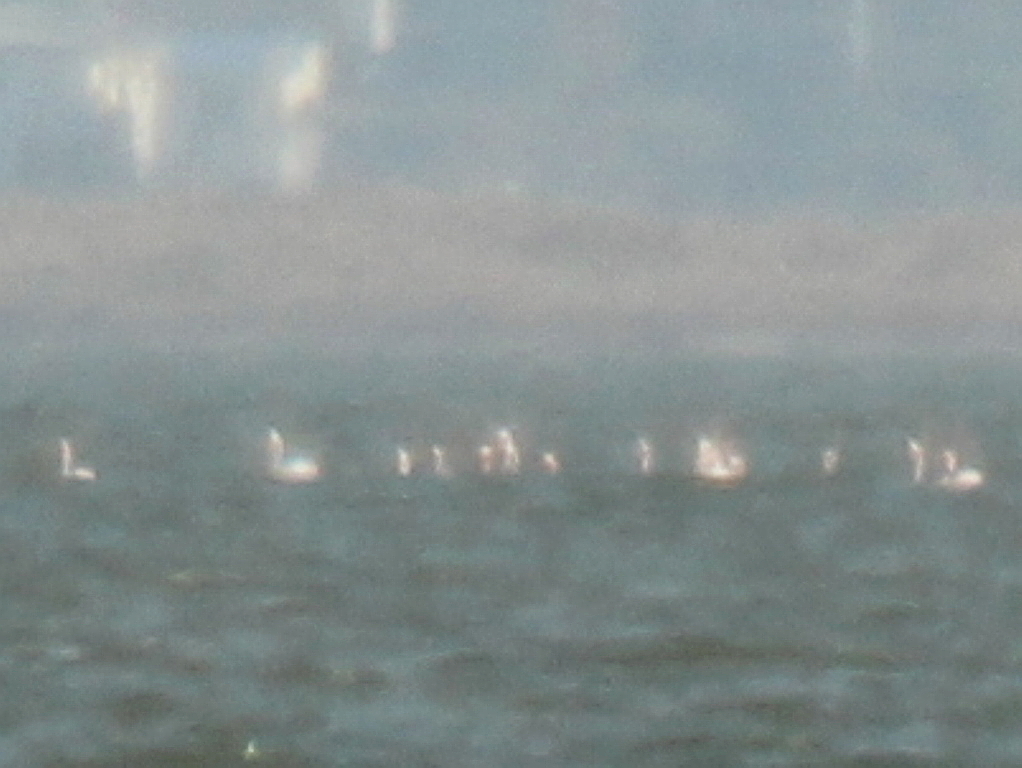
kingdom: Animalia
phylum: Chordata
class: Aves
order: Phoenicopteriformes
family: Phoenicopteridae
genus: Phoenicopterus
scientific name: Phoenicopterus roseus
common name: Greater flamingo
